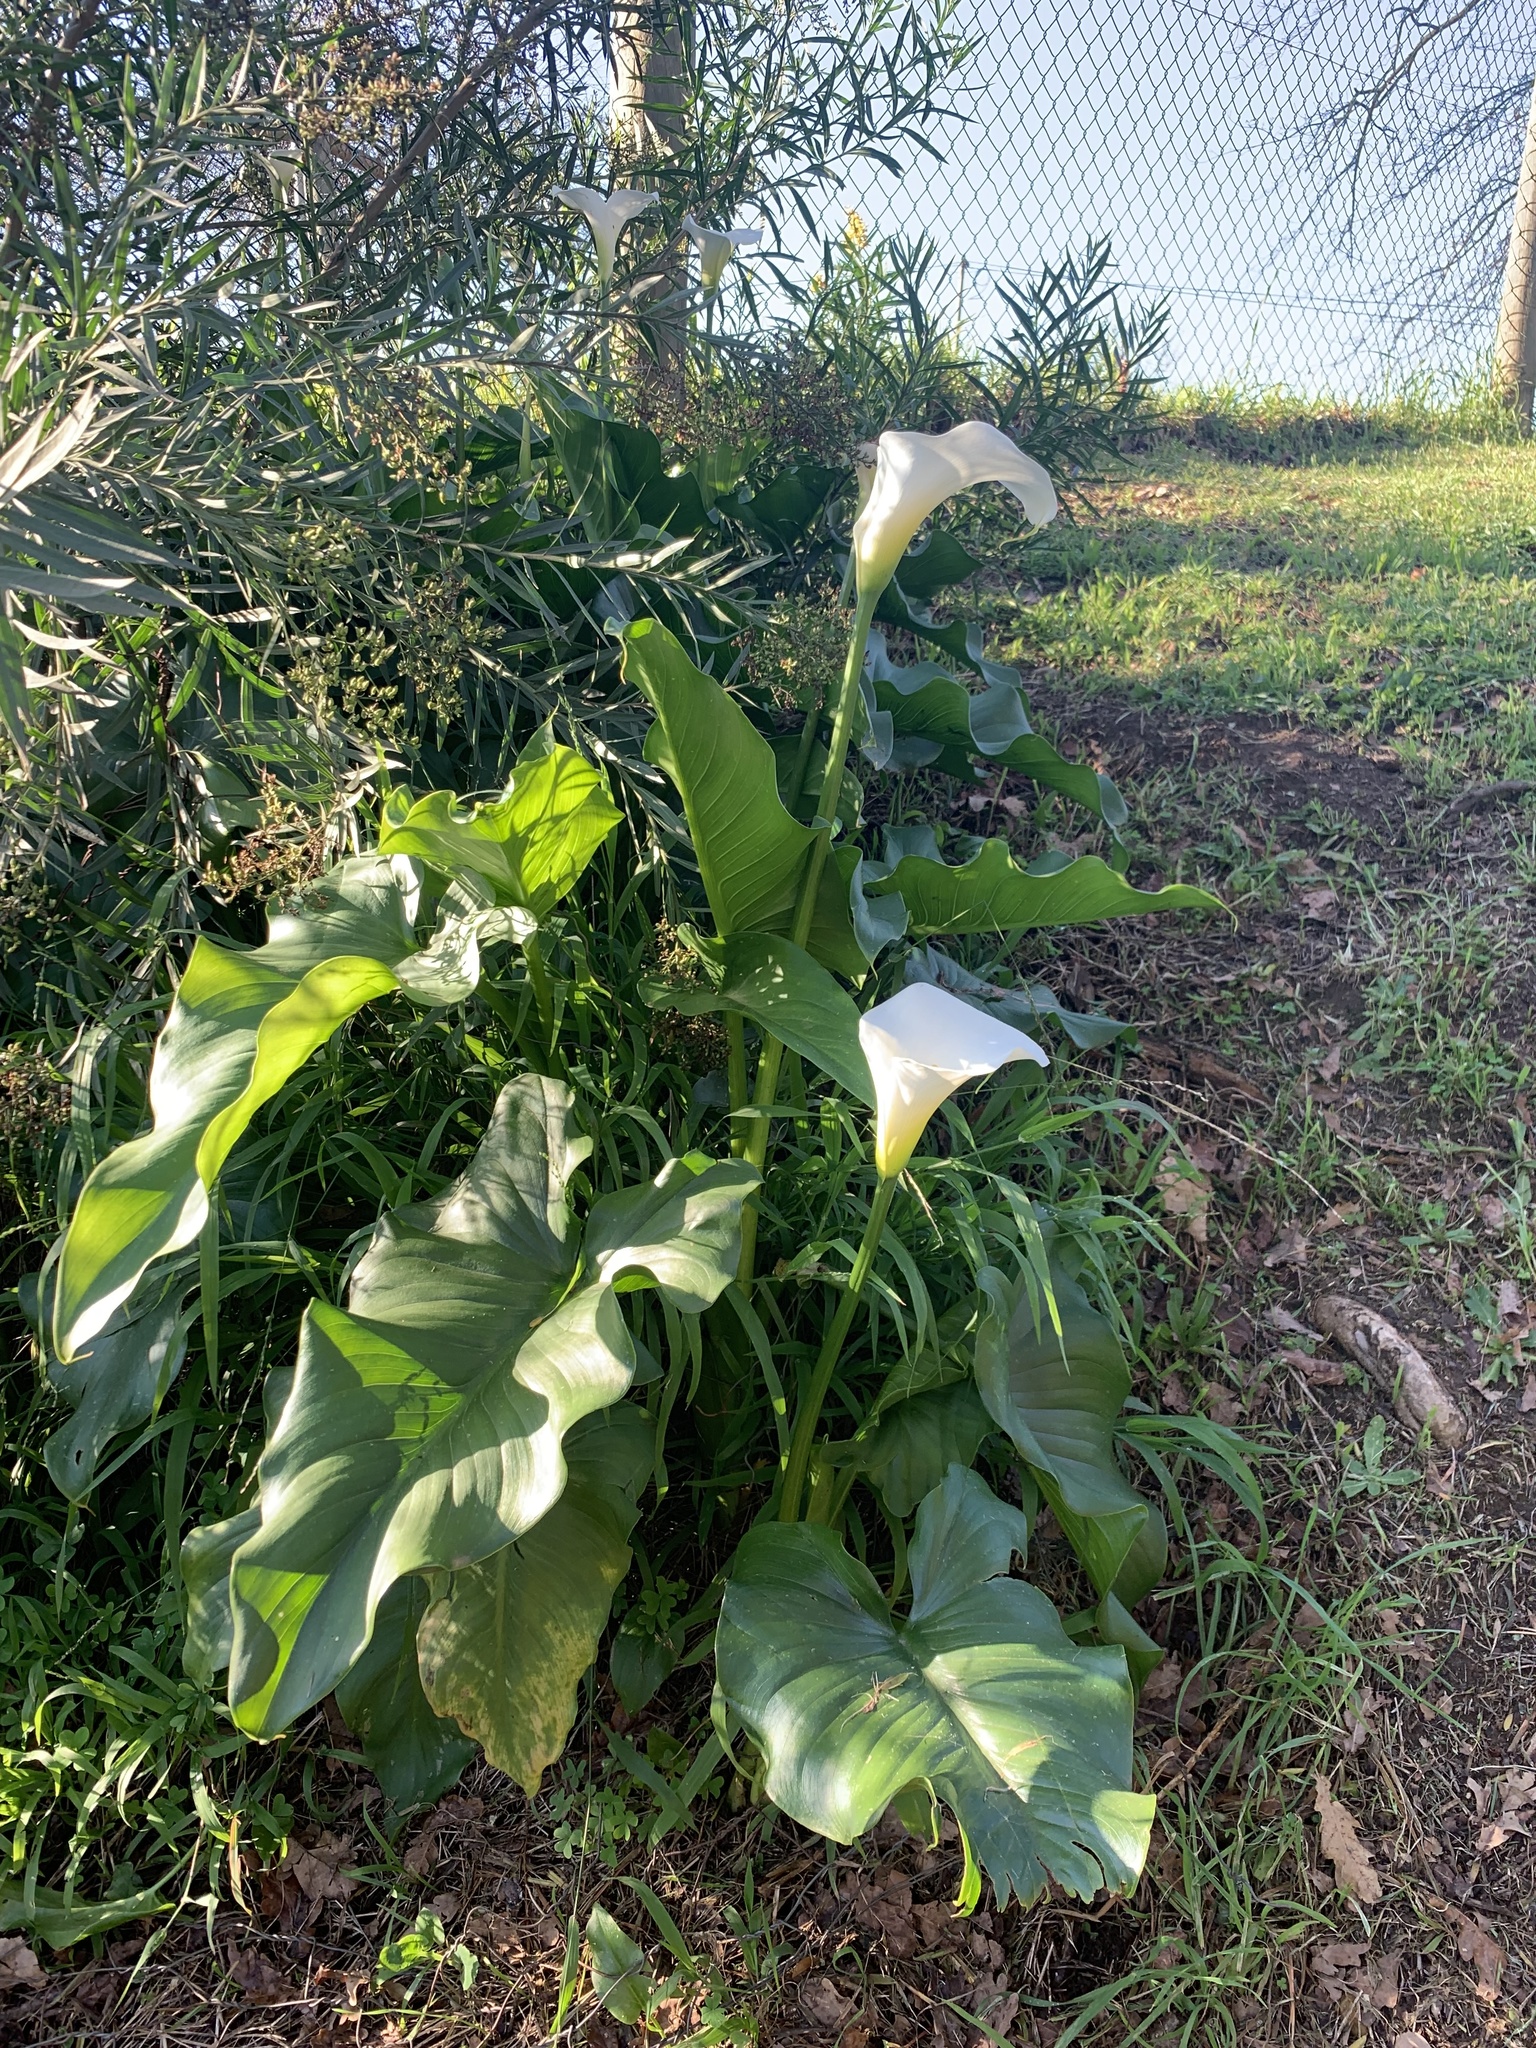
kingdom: Plantae
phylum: Tracheophyta
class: Liliopsida
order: Alismatales
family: Araceae
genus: Zantedeschia
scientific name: Zantedeschia aethiopica
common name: Altar-lily
